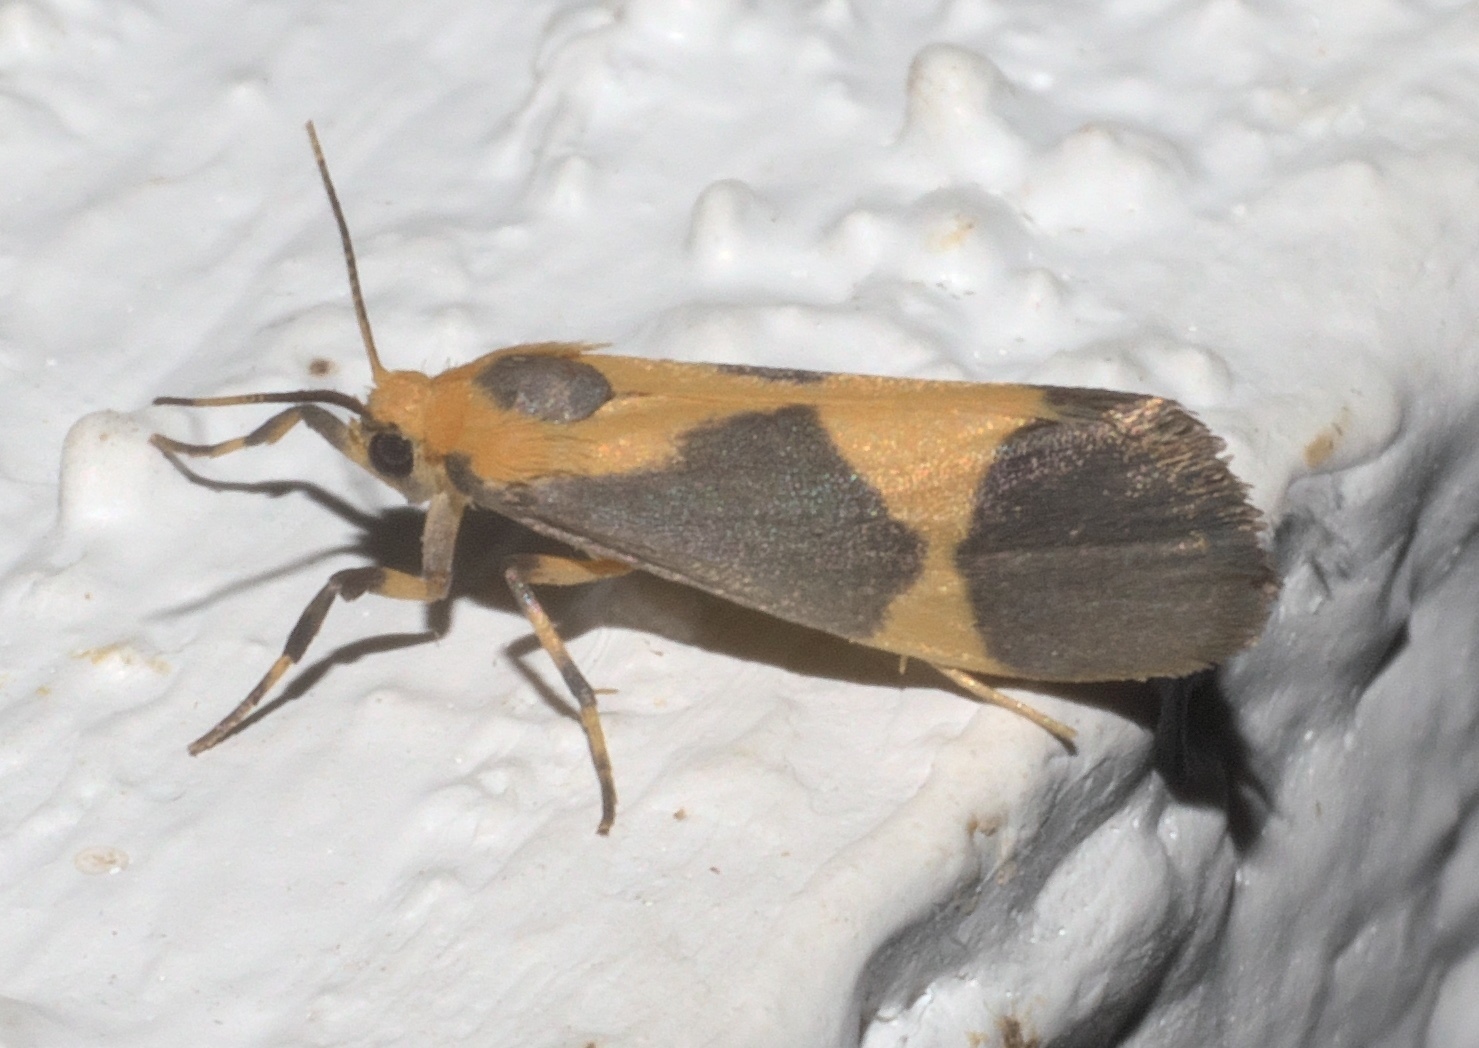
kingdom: Animalia
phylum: Arthropoda
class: Insecta
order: Lepidoptera
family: Erebidae
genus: Cisthene
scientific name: Cisthene unifascia
